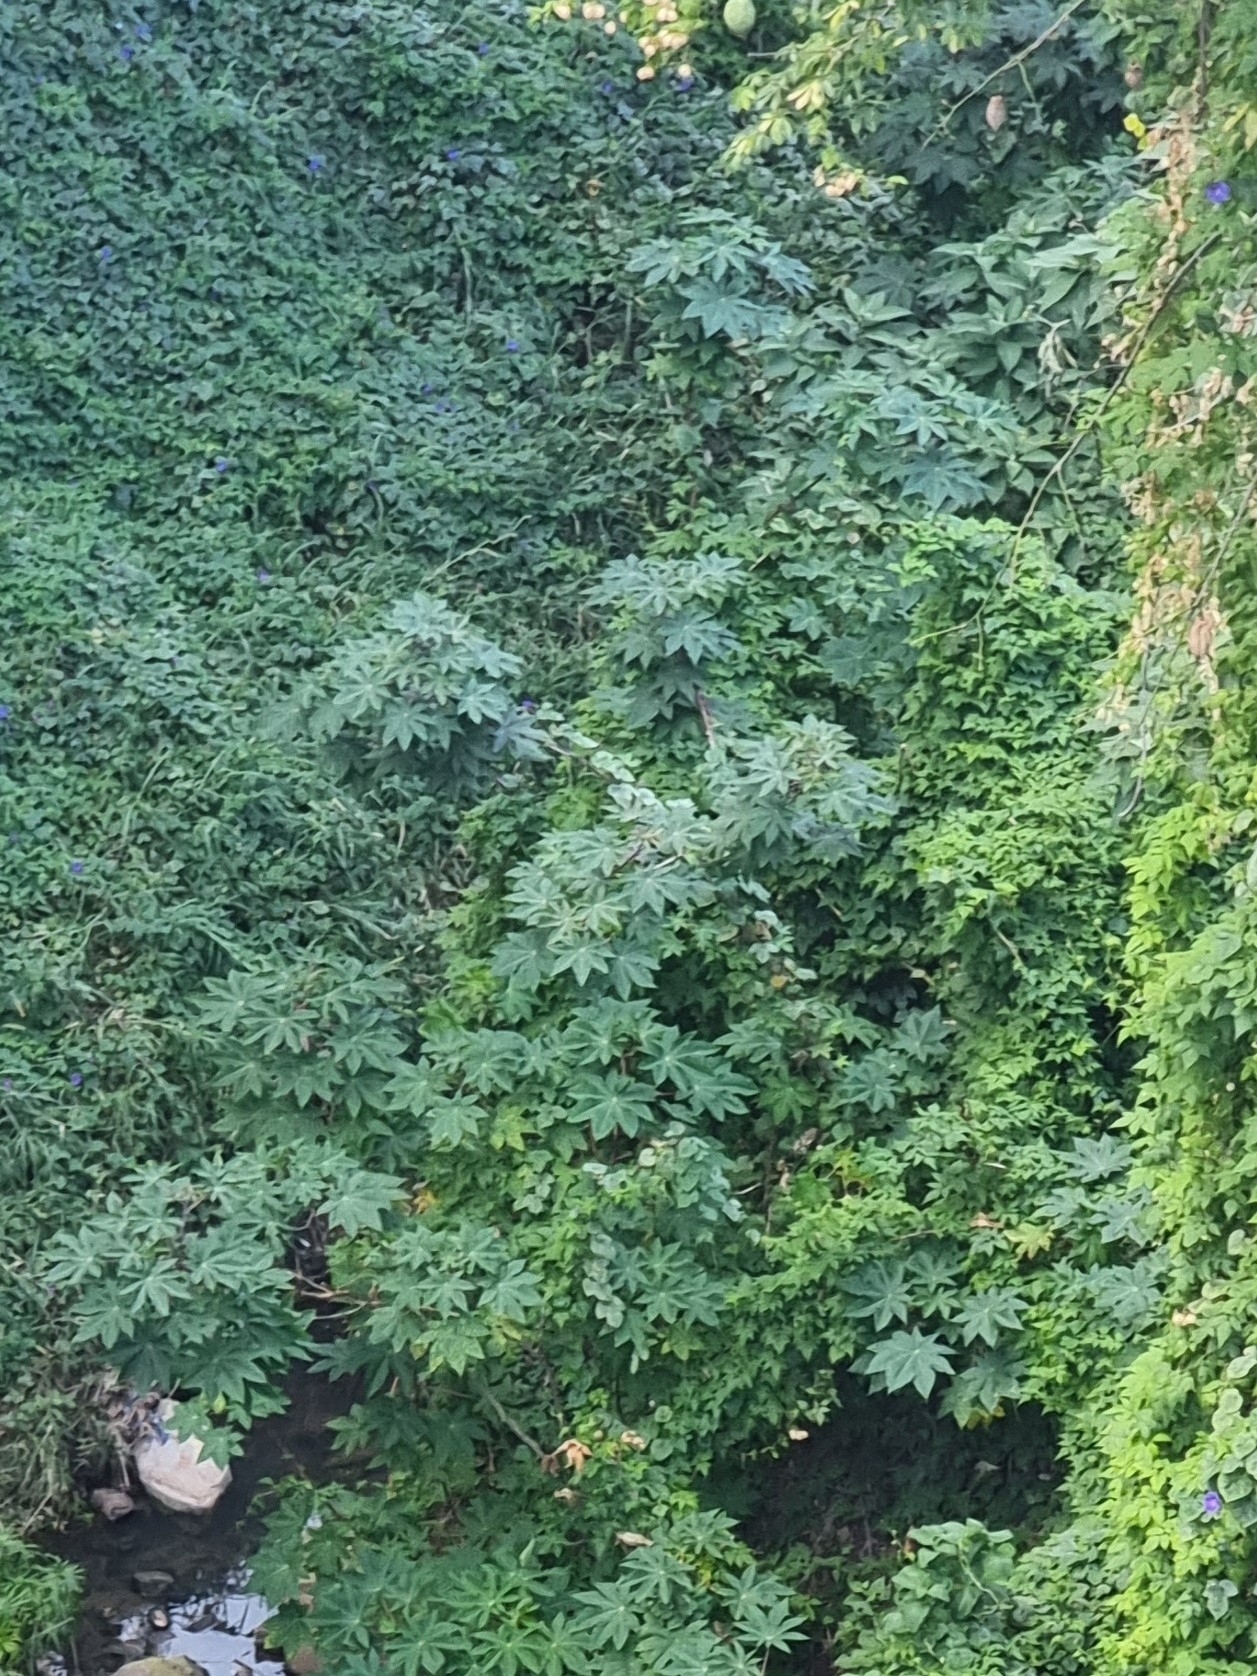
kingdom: Plantae
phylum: Tracheophyta
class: Magnoliopsida
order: Malpighiales
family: Euphorbiaceae
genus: Ricinus
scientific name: Ricinus communis
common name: Castor-oil-plant
